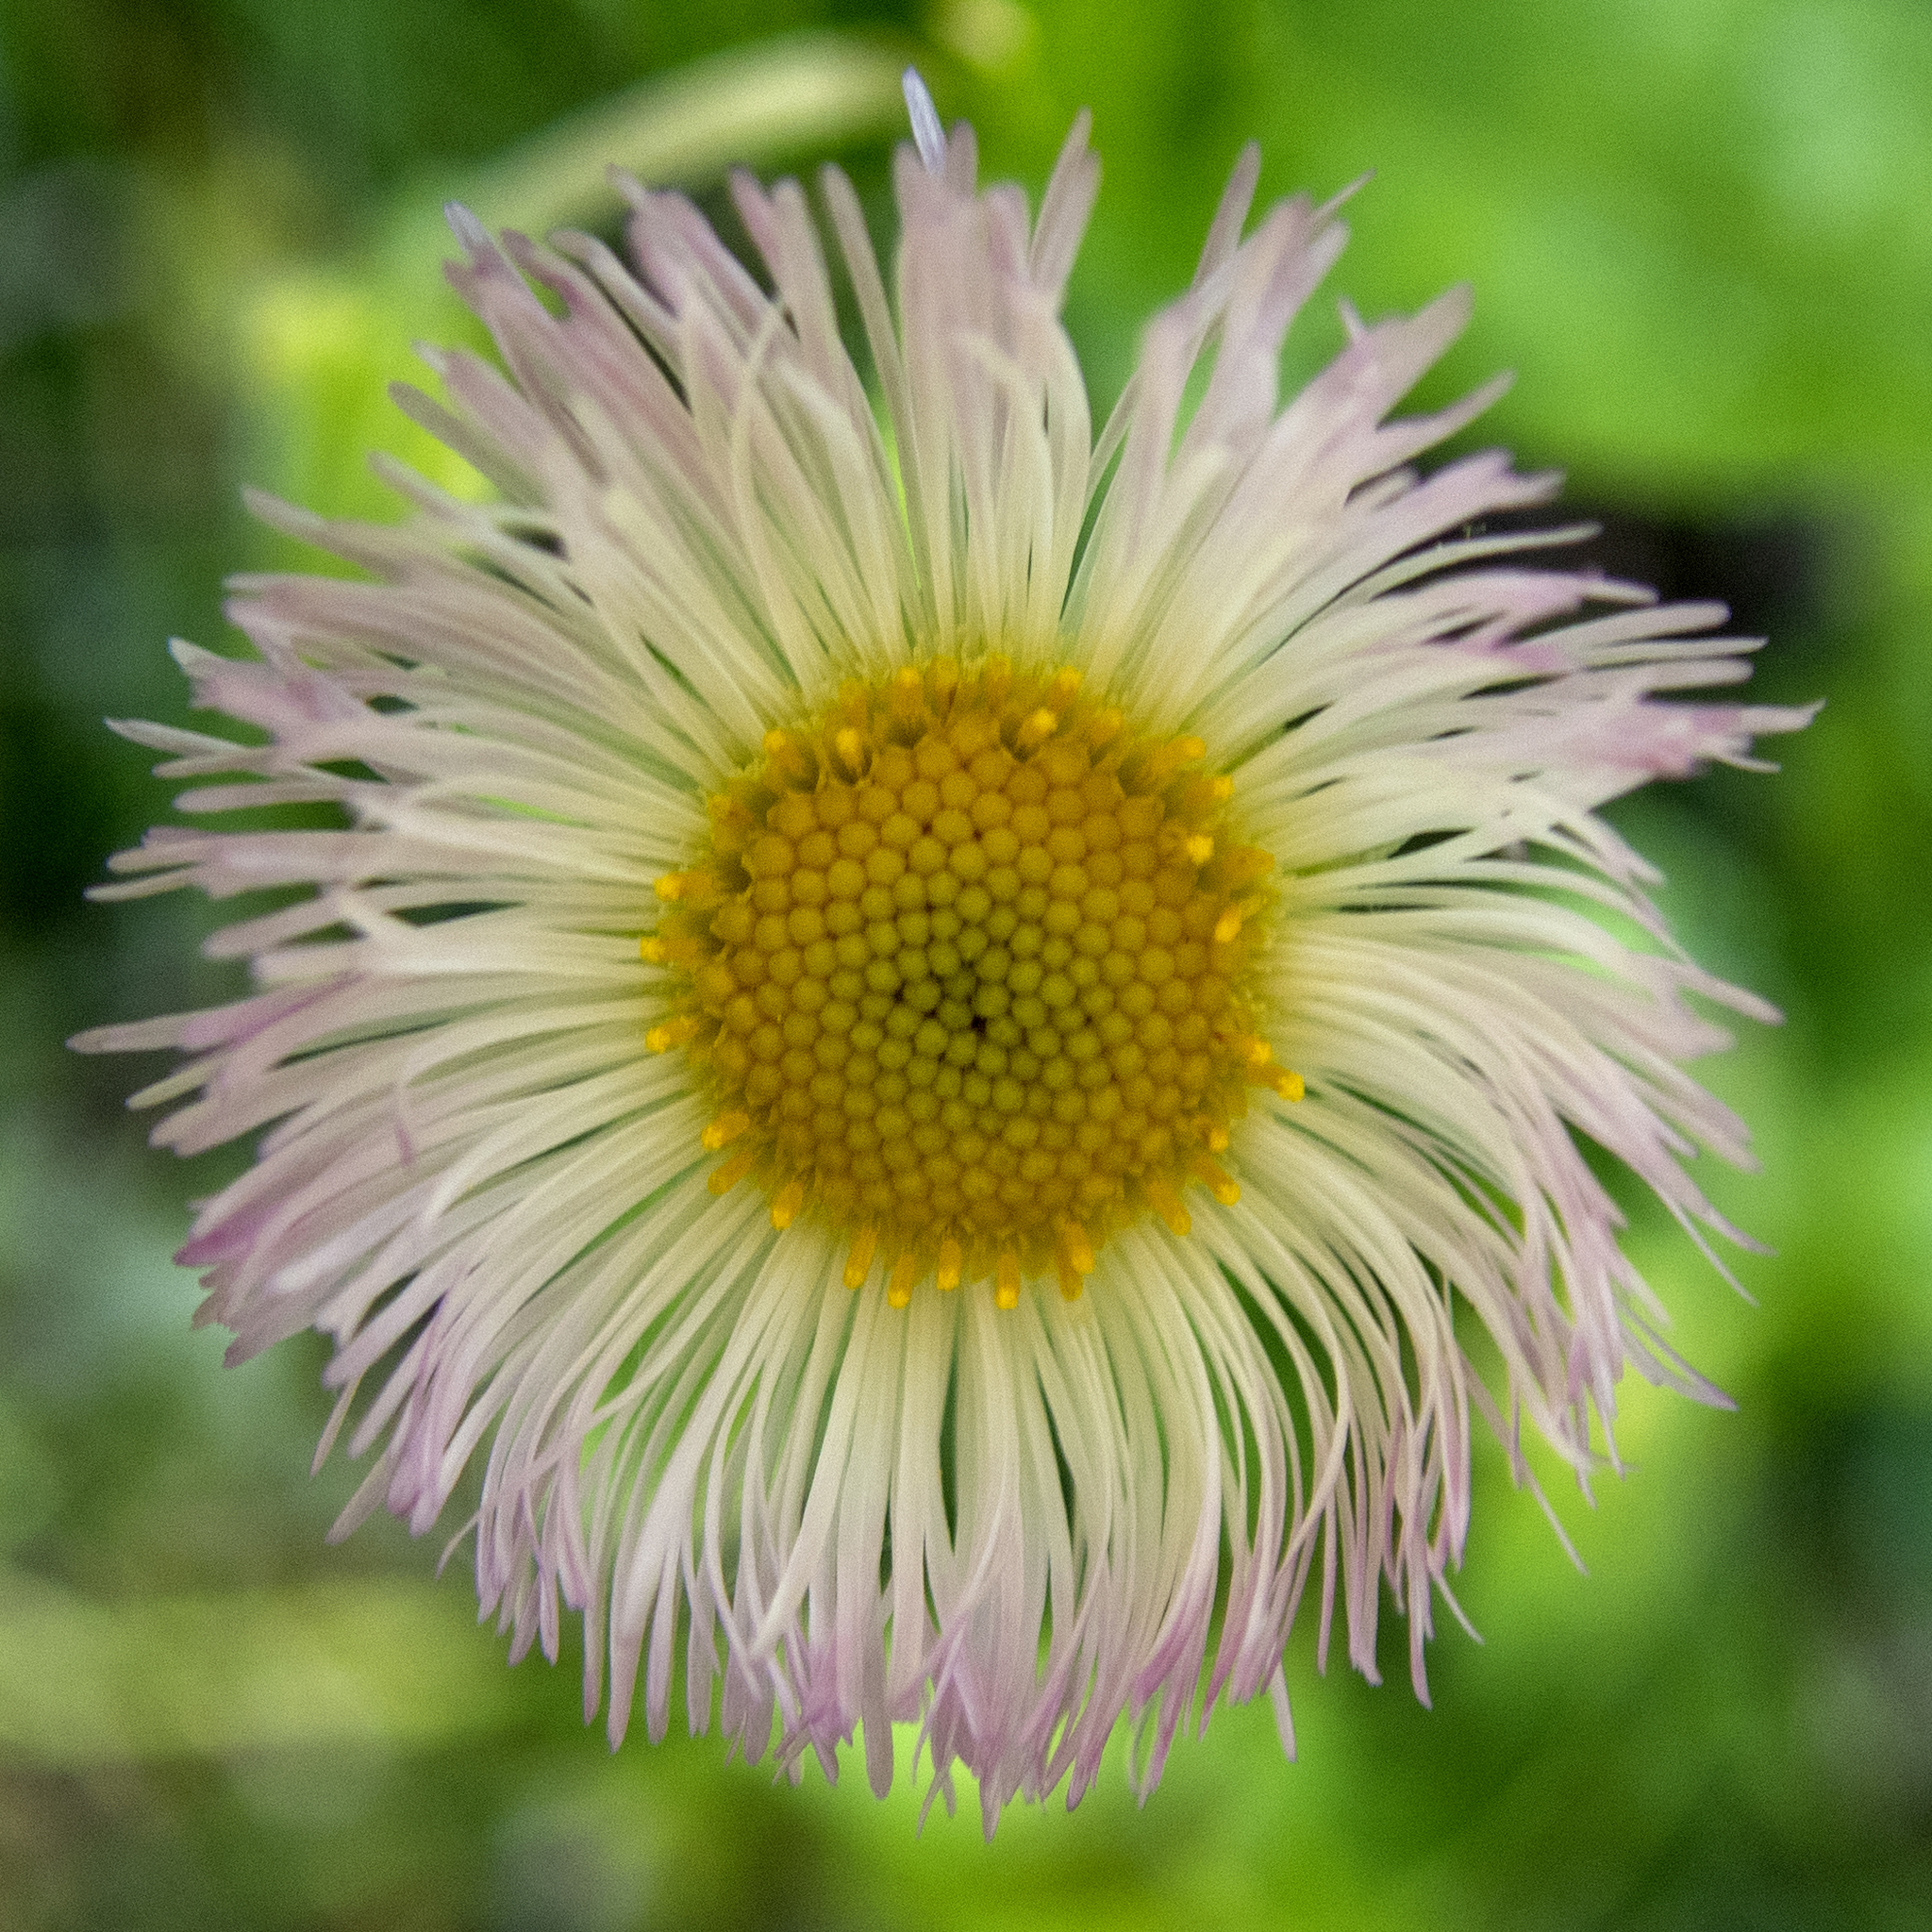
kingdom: Plantae
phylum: Tracheophyta
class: Magnoliopsida
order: Asterales
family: Asteraceae
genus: Erigeron
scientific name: Erigeron philadelphicus
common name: Robin's-plantain
